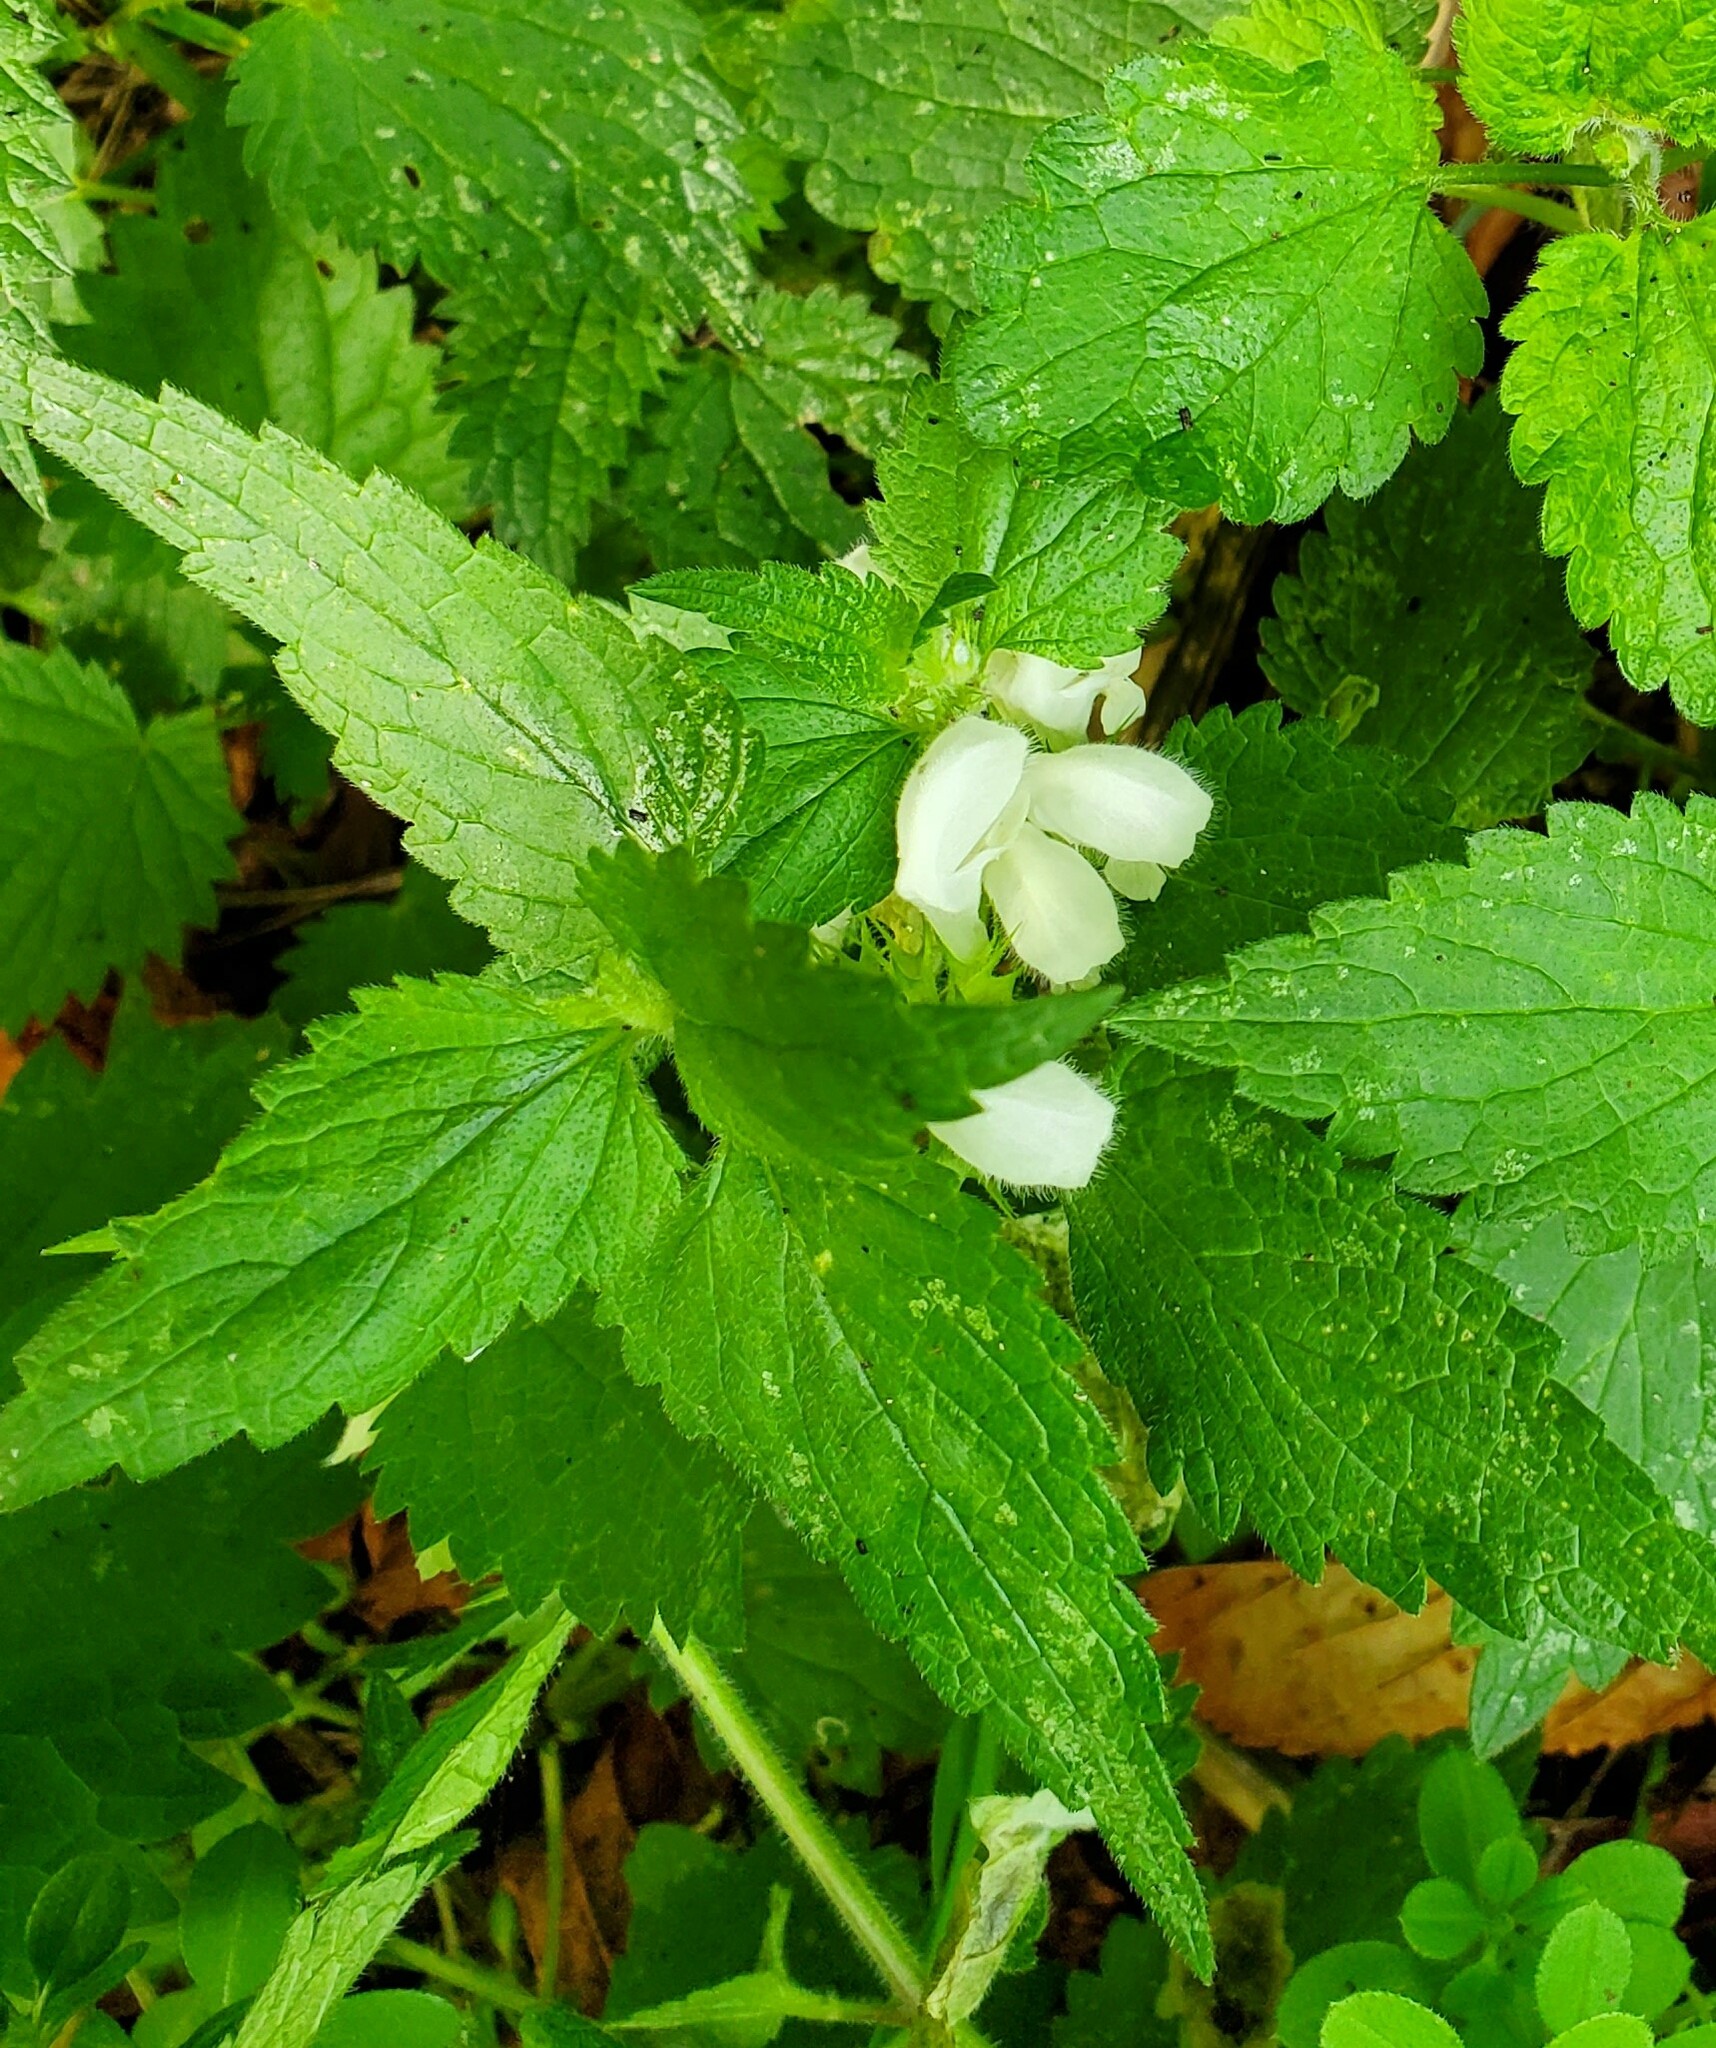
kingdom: Plantae
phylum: Tracheophyta
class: Magnoliopsida
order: Lamiales
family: Lamiaceae
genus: Lamium
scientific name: Lamium album
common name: White dead-nettle
